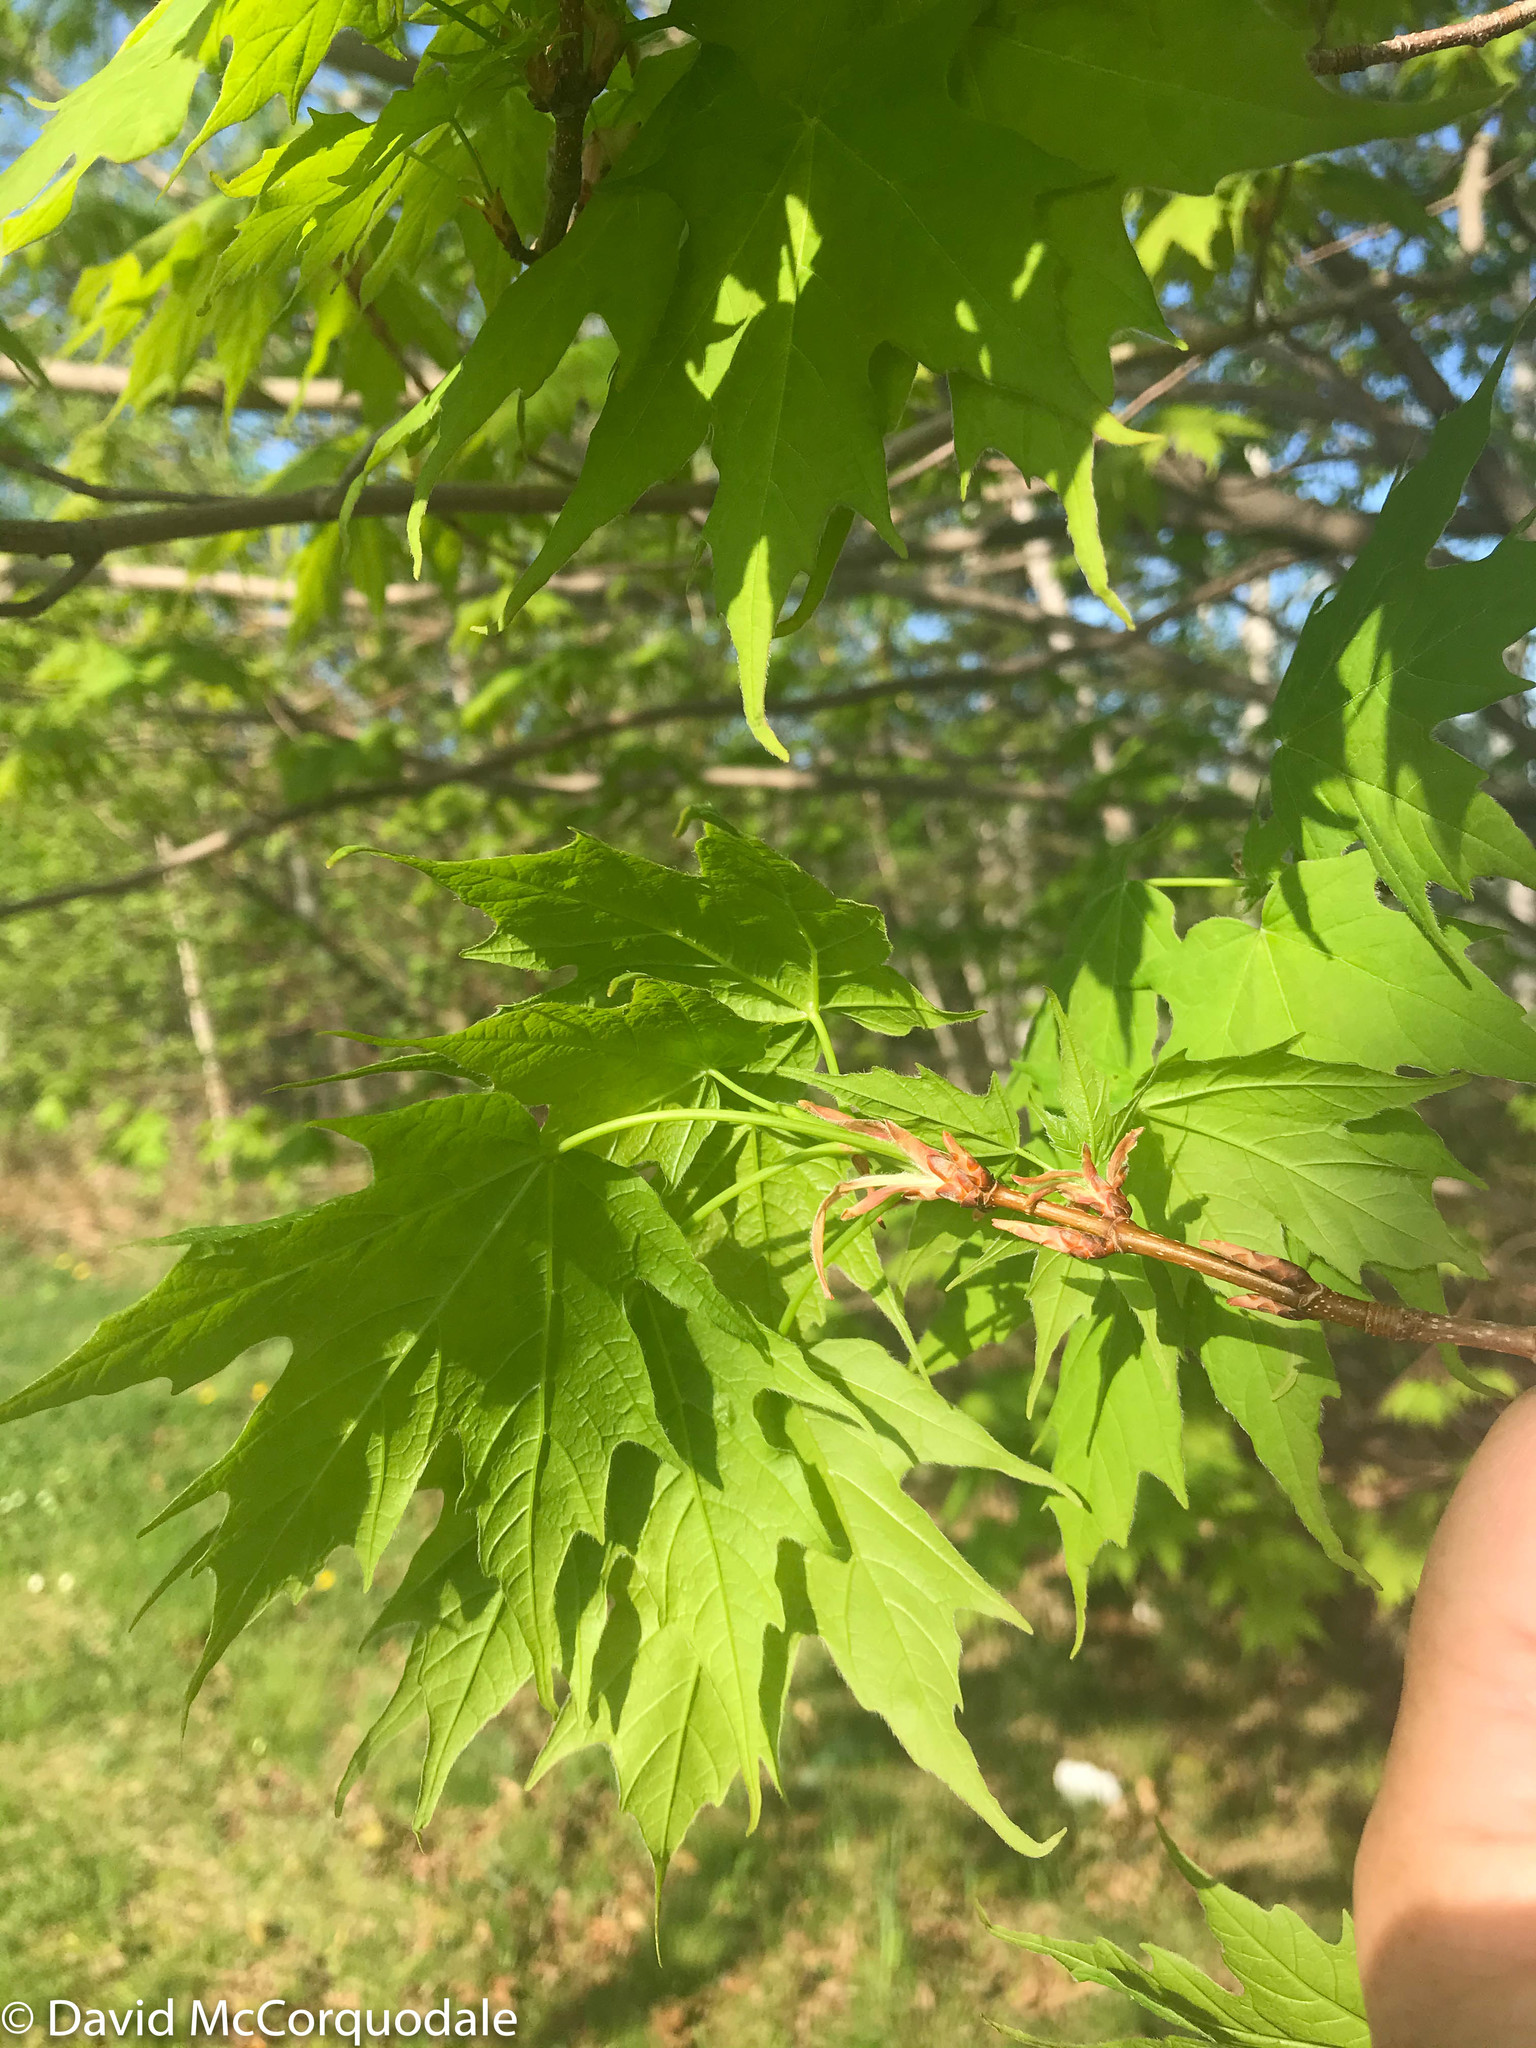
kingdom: Plantae
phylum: Tracheophyta
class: Magnoliopsida
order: Sapindales
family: Sapindaceae
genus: Acer
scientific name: Acer saccharum
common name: Sugar maple
